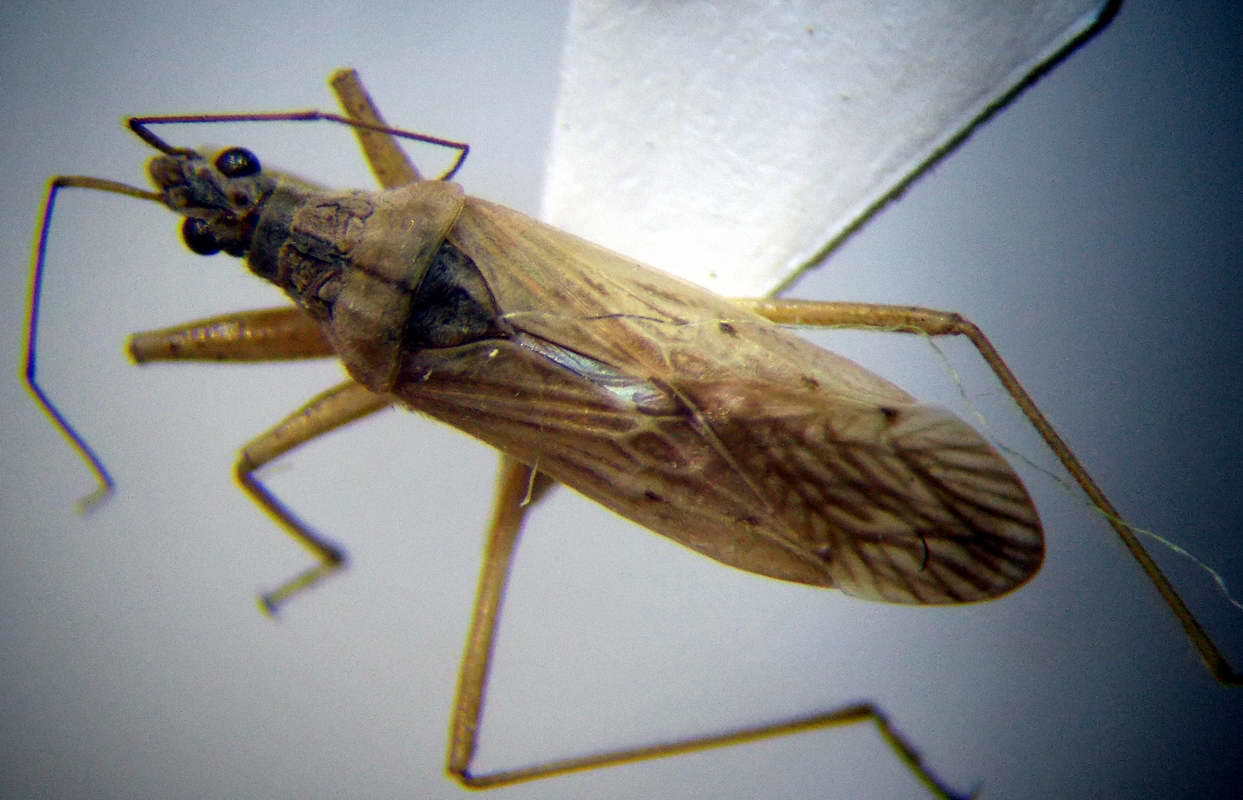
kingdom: Animalia
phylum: Arthropoda
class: Insecta
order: Hemiptera
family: Nabidae
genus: Nabis
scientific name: Nabis pseudoferus
